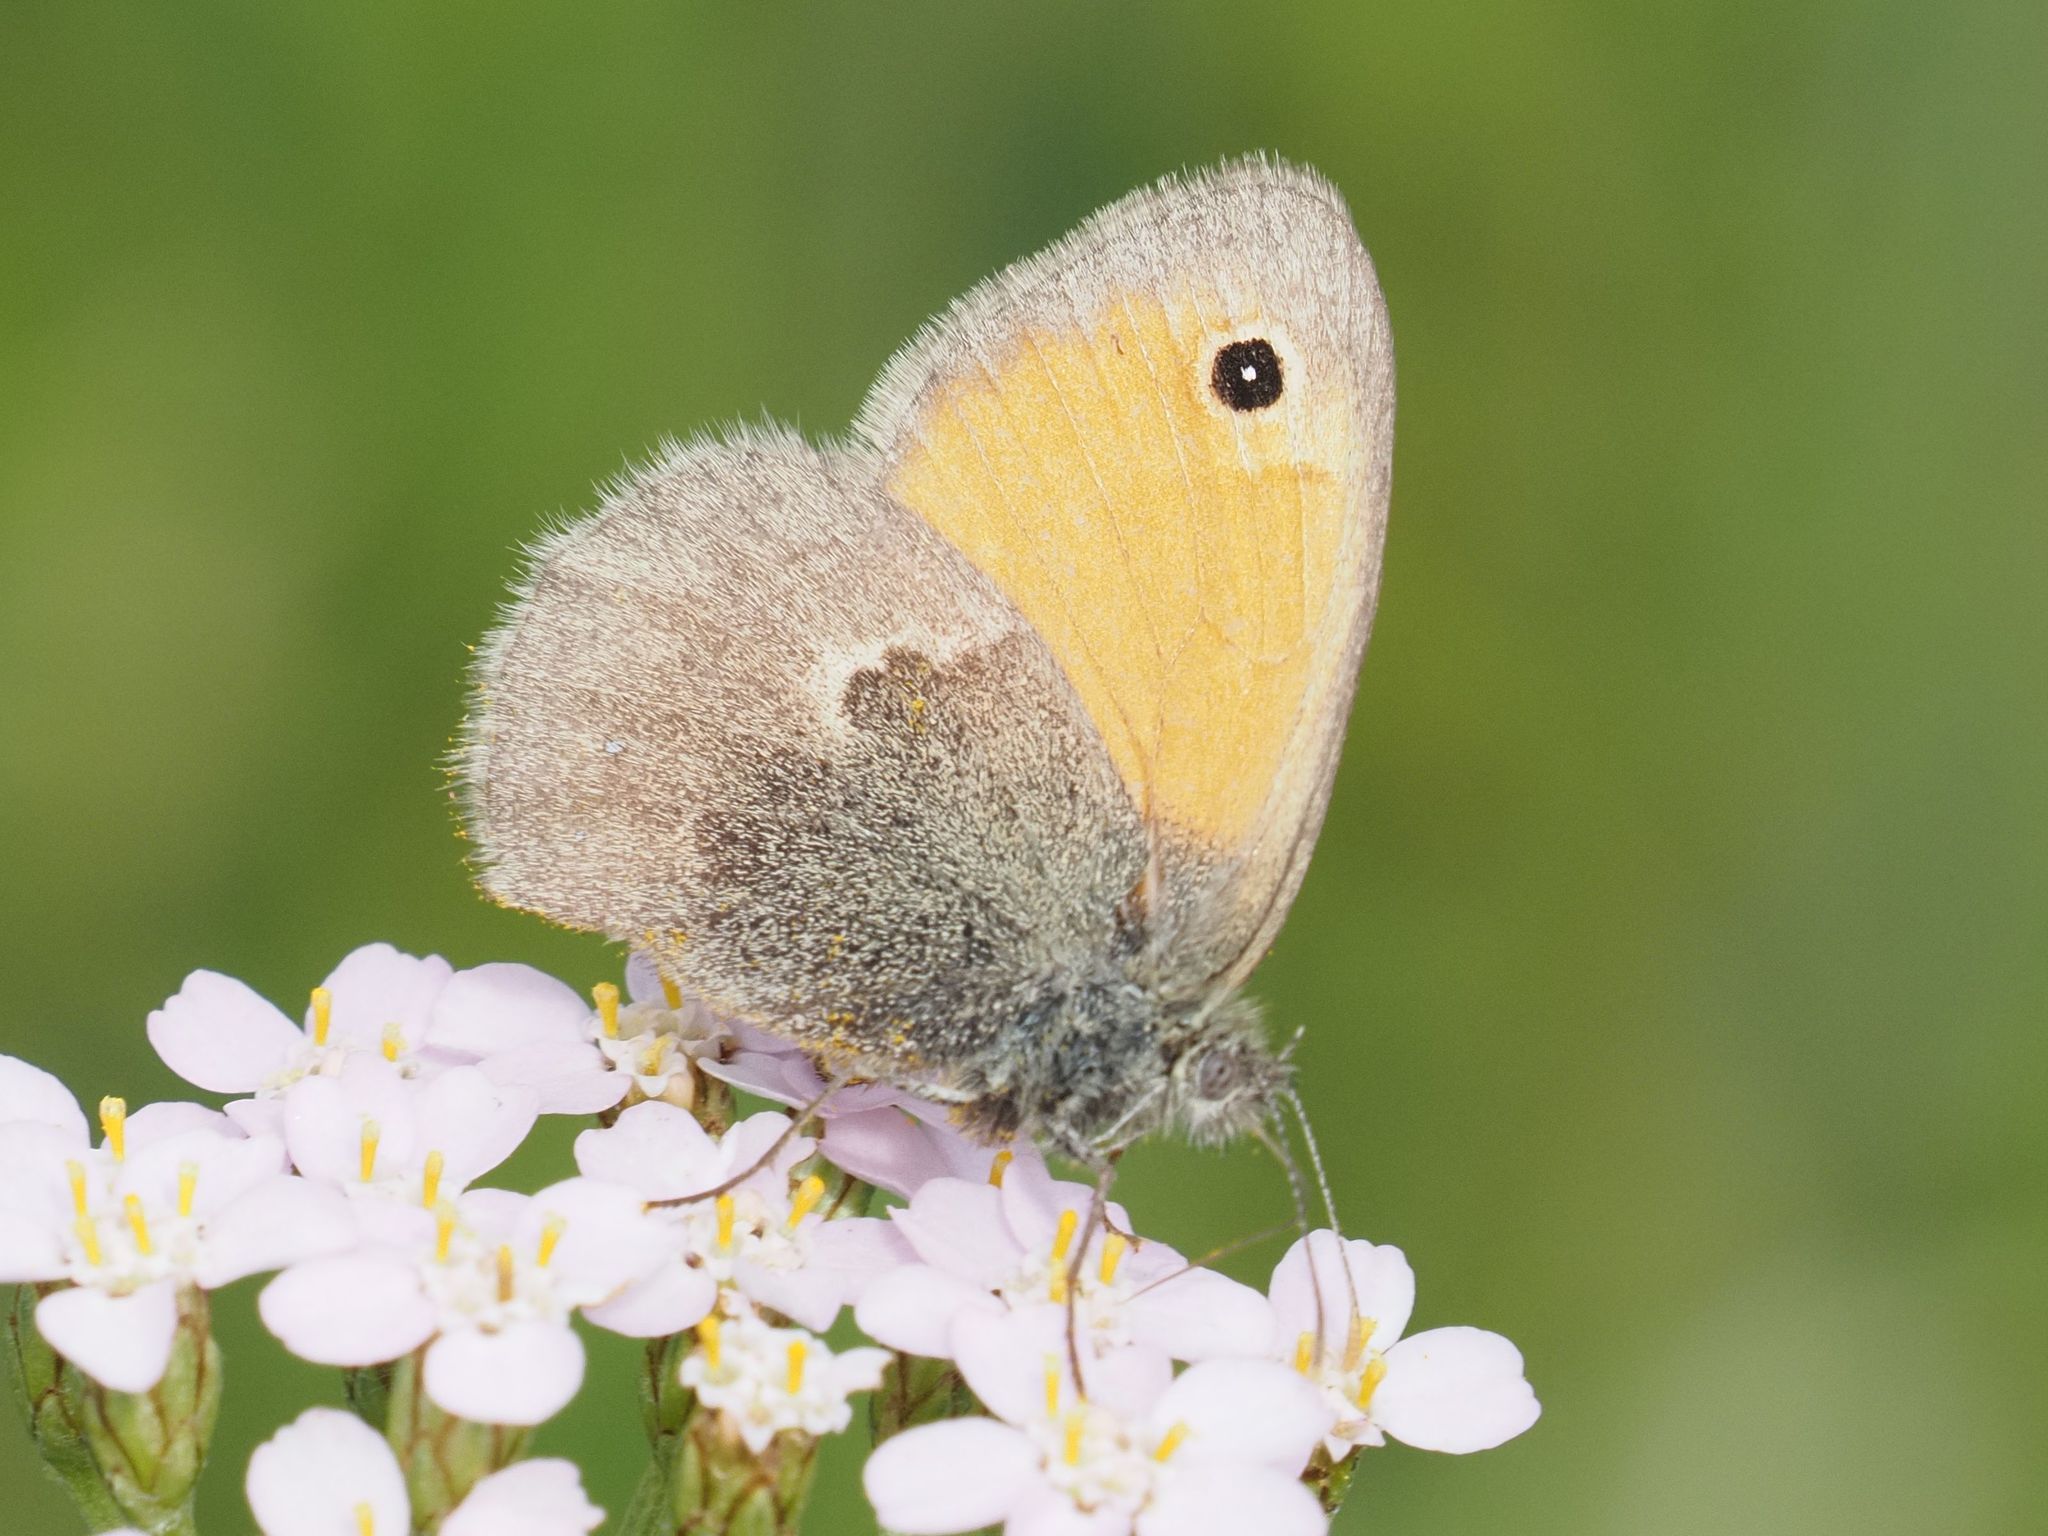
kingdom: Animalia
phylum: Arthropoda
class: Insecta
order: Lepidoptera
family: Nymphalidae
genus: Coenonympha
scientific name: Coenonympha pamphilus
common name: Small heath
